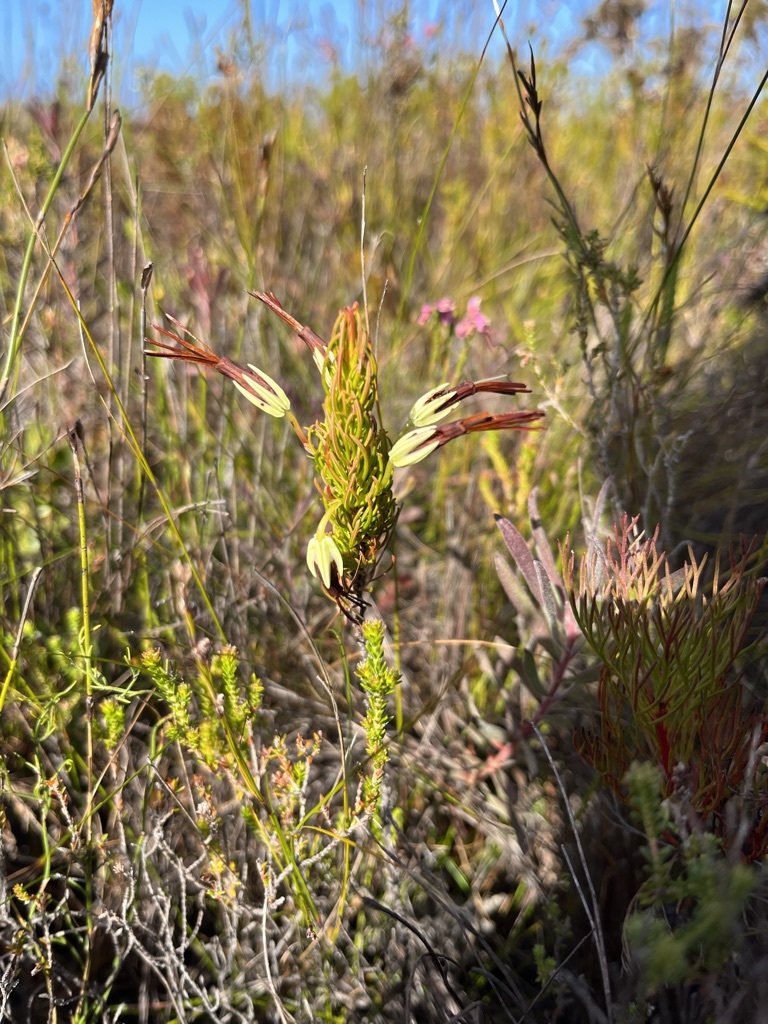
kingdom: Plantae
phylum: Tracheophyta
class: Magnoliopsida
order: Ericales
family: Ericaceae
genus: Erica
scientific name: Erica plukenetii
